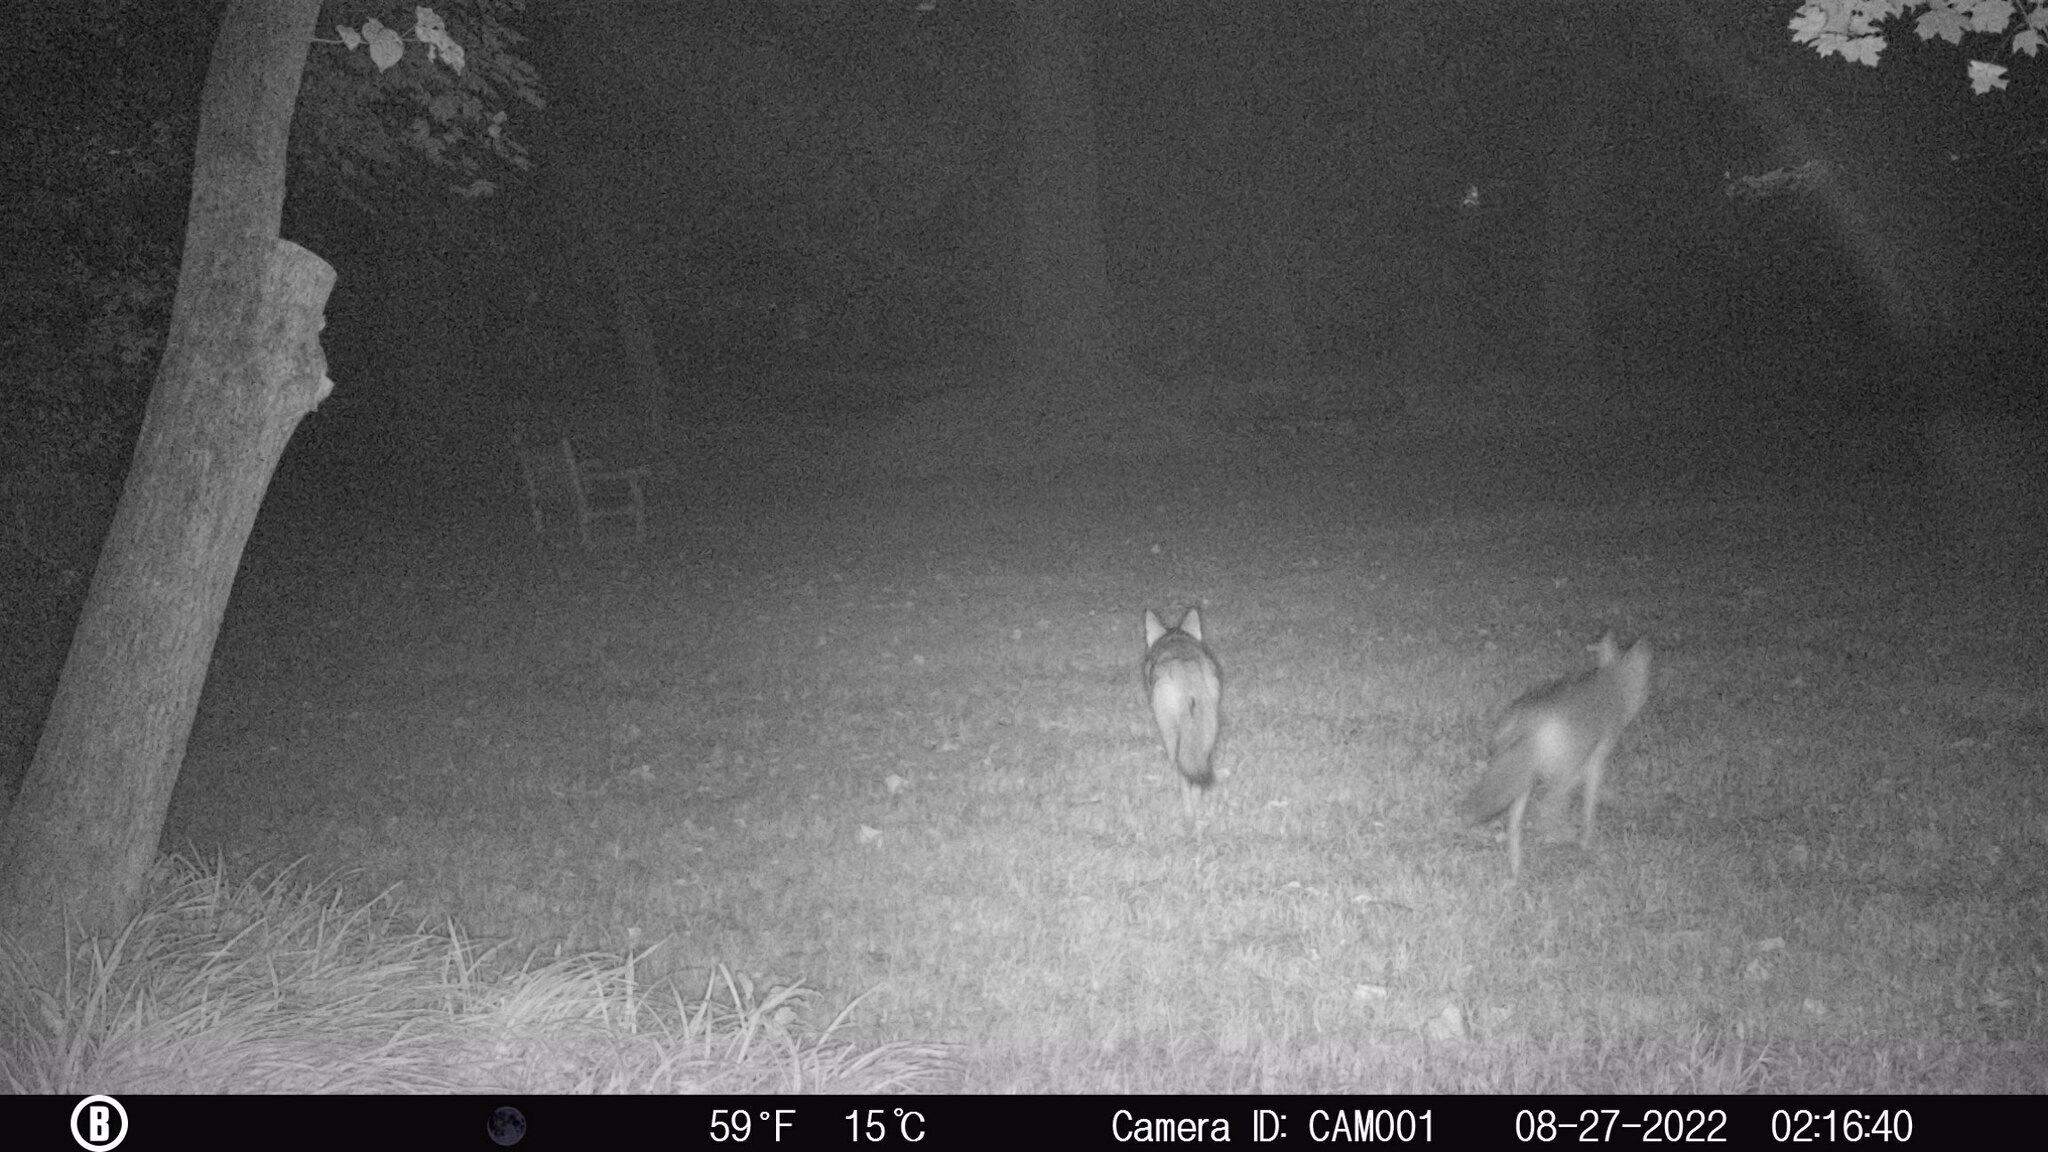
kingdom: Animalia
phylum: Chordata
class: Mammalia
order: Carnivora
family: Canidae
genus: Canis
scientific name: Canis latrans
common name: Coyote
